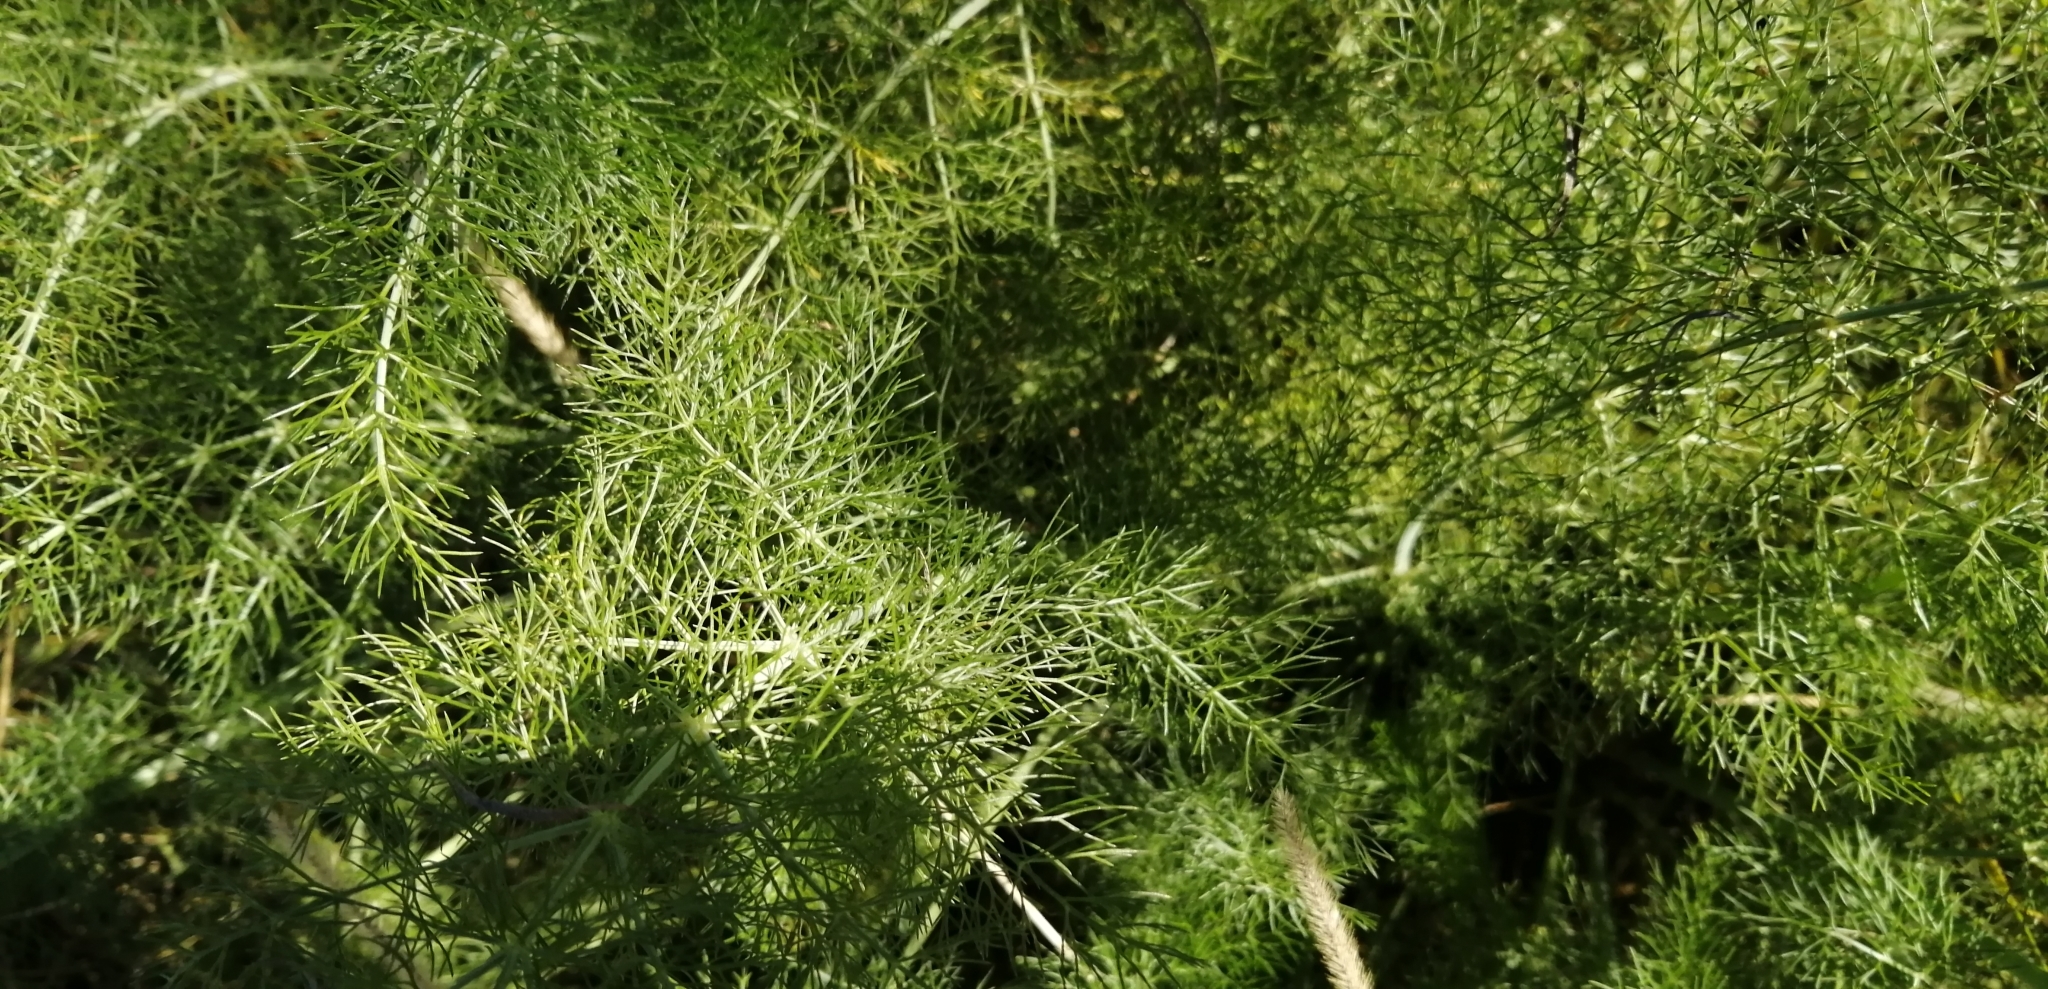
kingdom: Plantae
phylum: Tracheophyta
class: Magnoliopsida
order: Apiales
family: Apiaceae
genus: Foeniculum
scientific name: Foeniculum vulgare
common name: Fennel
